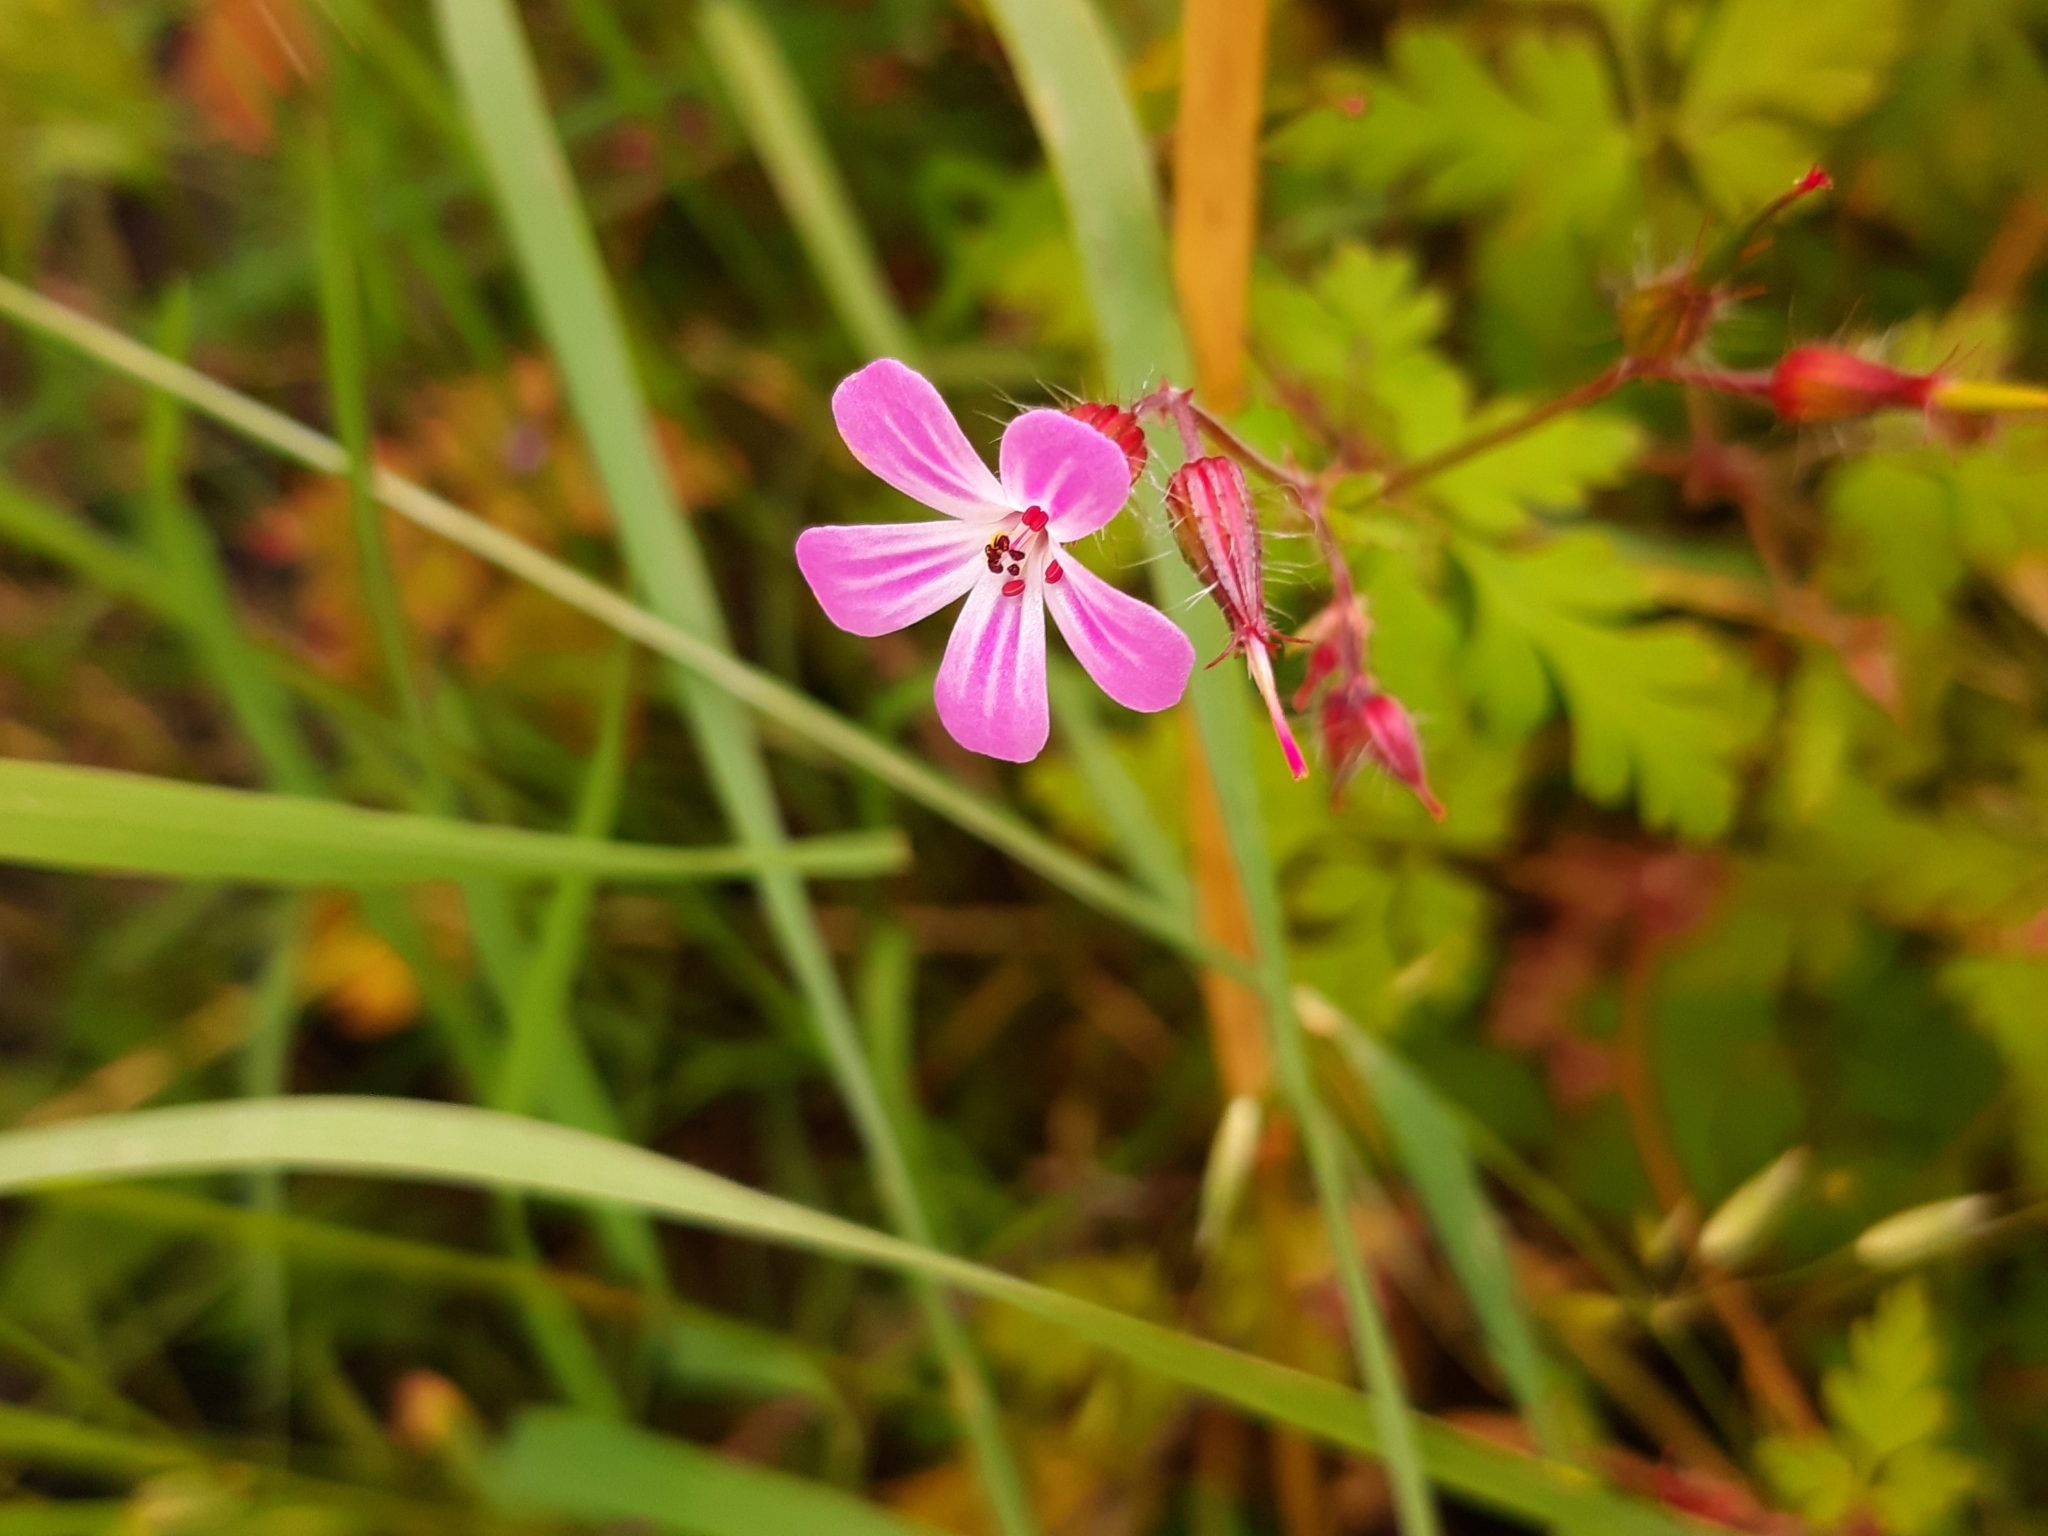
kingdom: Plantae
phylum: Tracheophyta
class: Magnoliopsida
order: Geraniales
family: Geraniaceae
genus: Geranium
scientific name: Geranium robertianum
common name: Herb-robert
